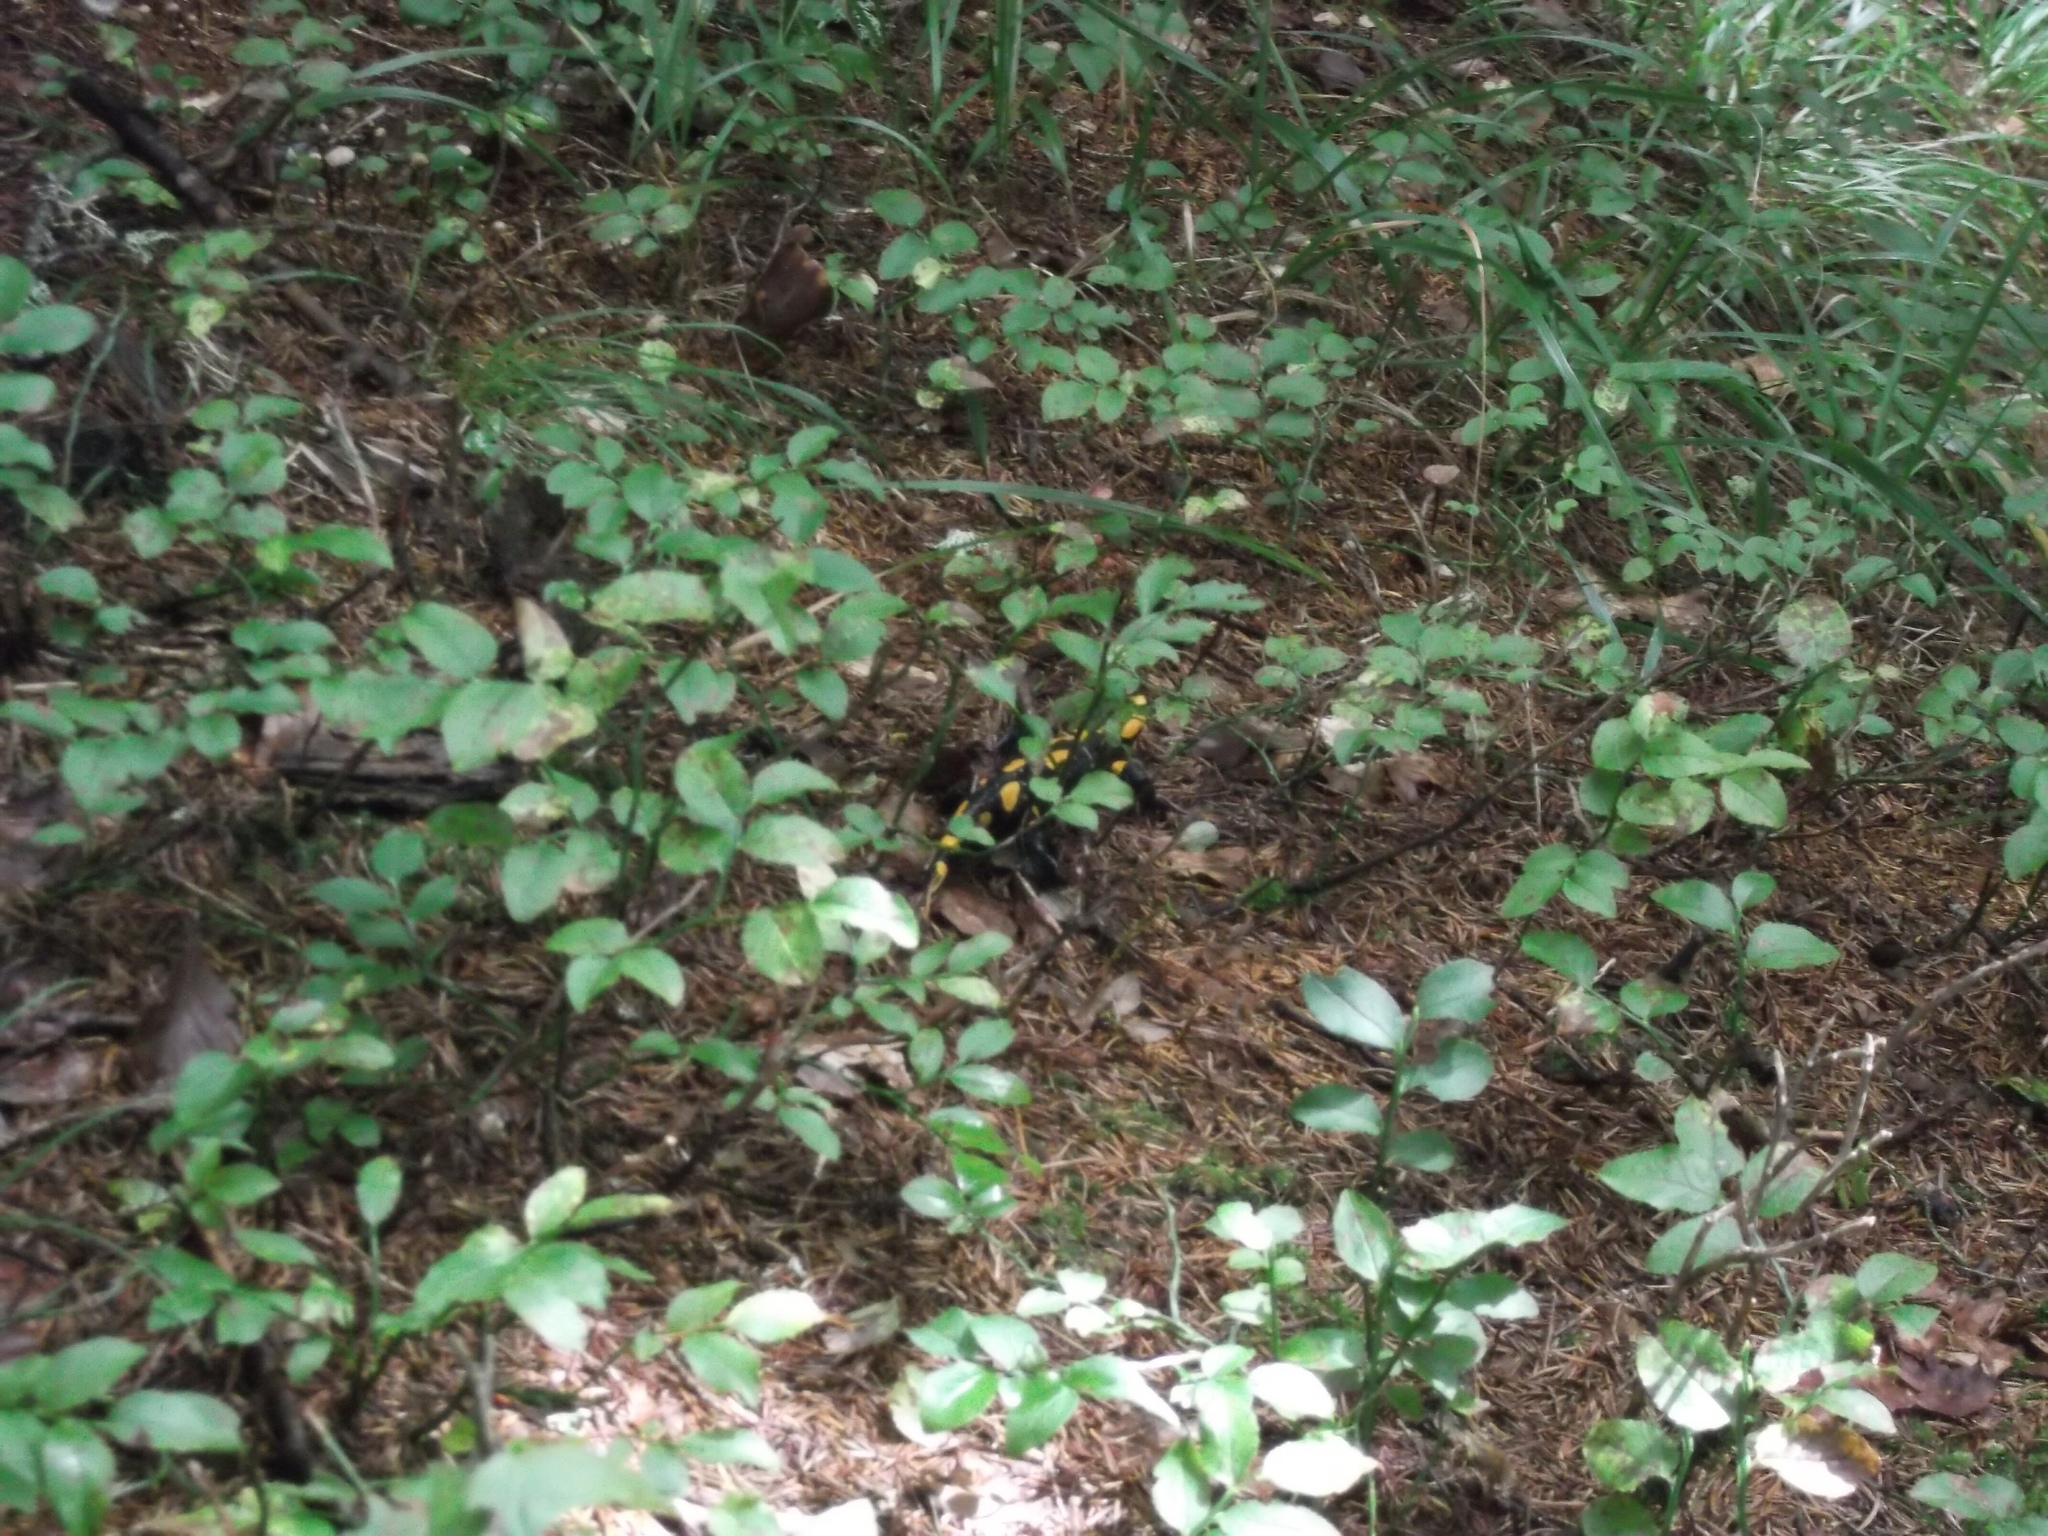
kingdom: Animalia
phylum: Chordata
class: Amphibia
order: Caudata
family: Salamandridae
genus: Salamandra
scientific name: Salamandra salamandra
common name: Fire salamander
